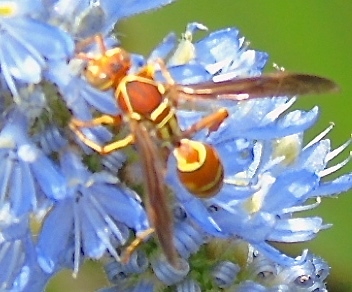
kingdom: Animalia
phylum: Arthropoda
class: Insecta
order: Hymenoptera
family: Eumenidae
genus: Polistes
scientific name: Polistes dorsalis
